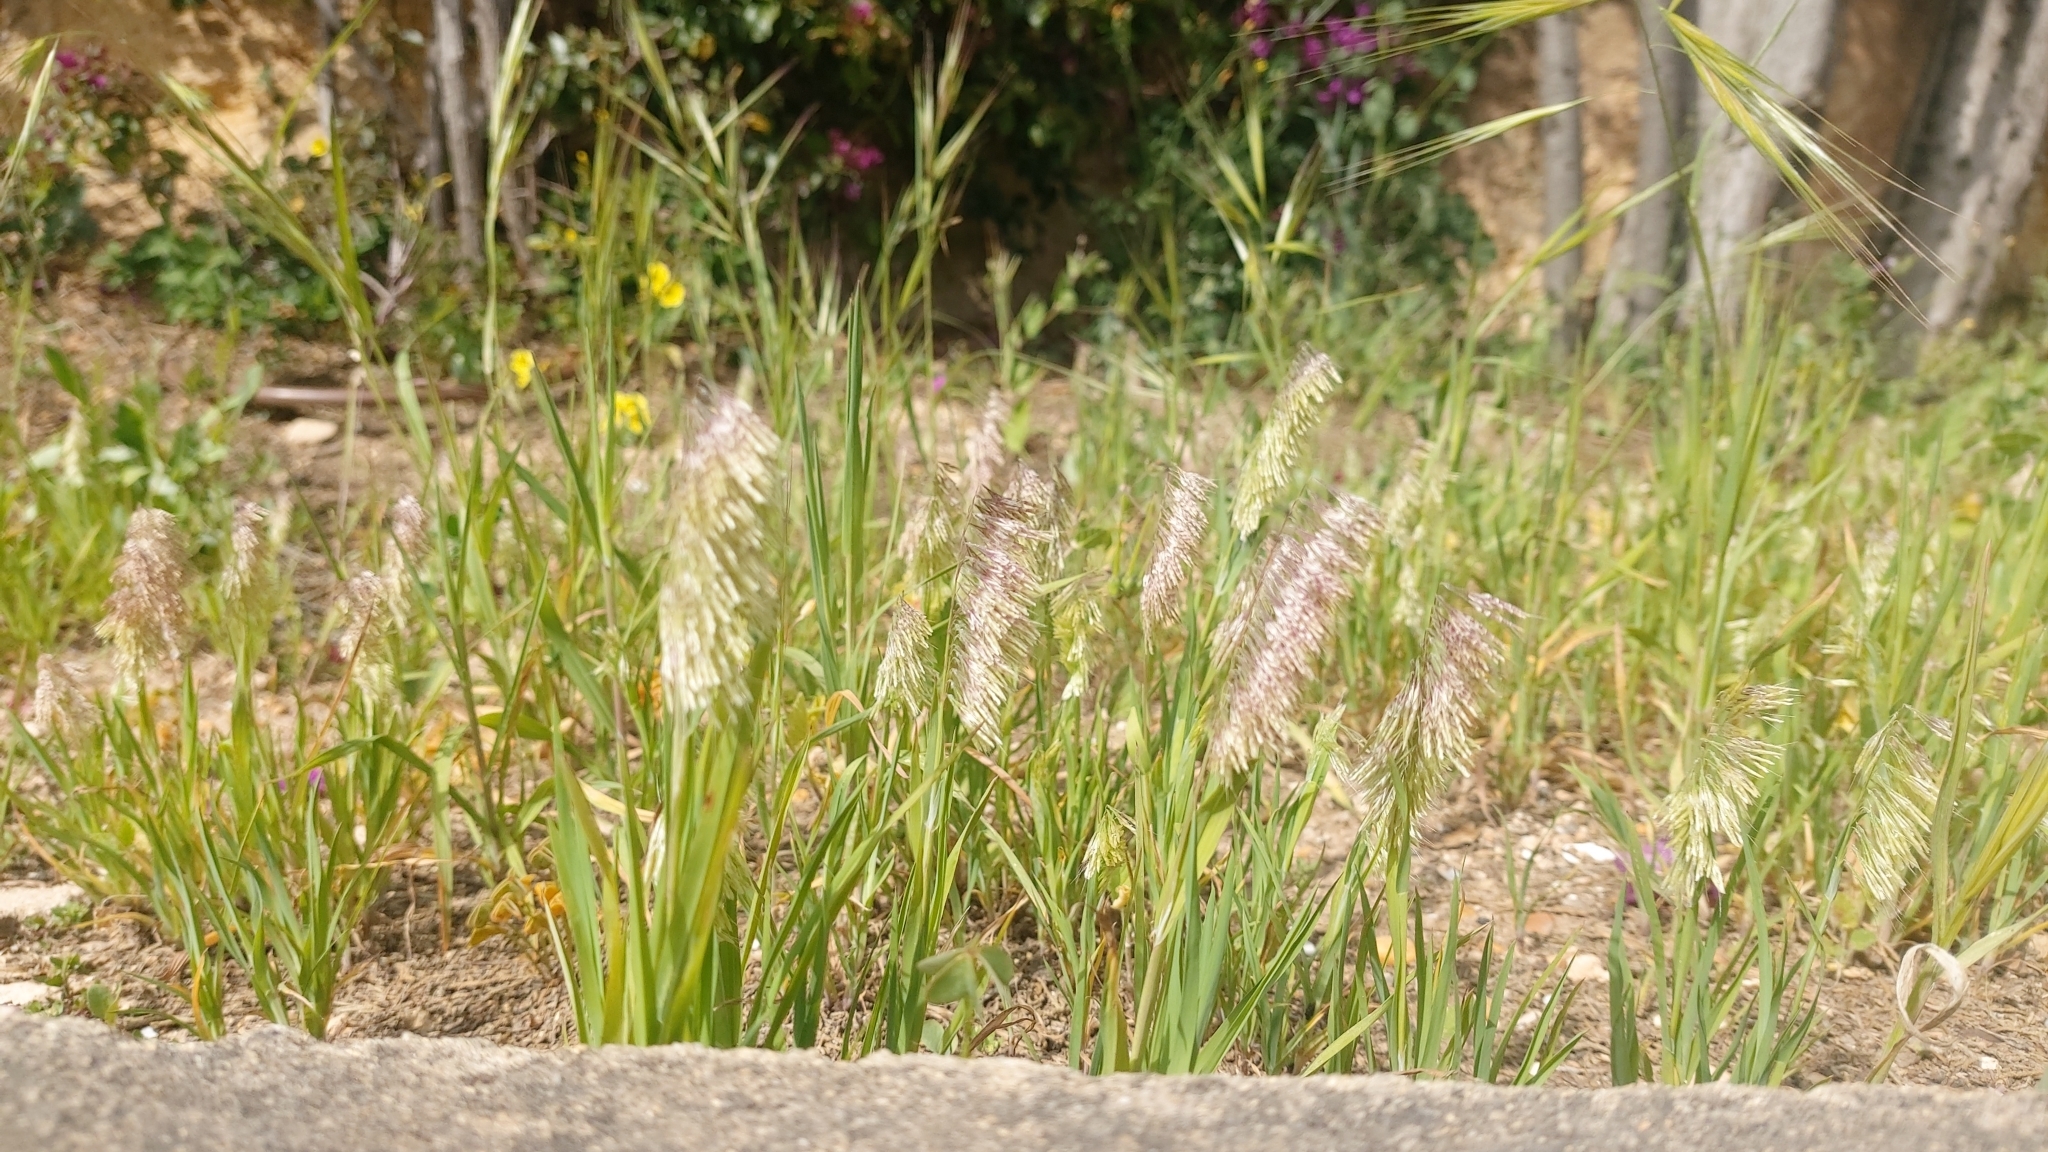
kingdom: Plantae
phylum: Tracheophyta
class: Liliopsida
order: Poales
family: Poaceae
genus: Lamarckia
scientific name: Lamarckia aurea
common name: Golden dog's-tail
